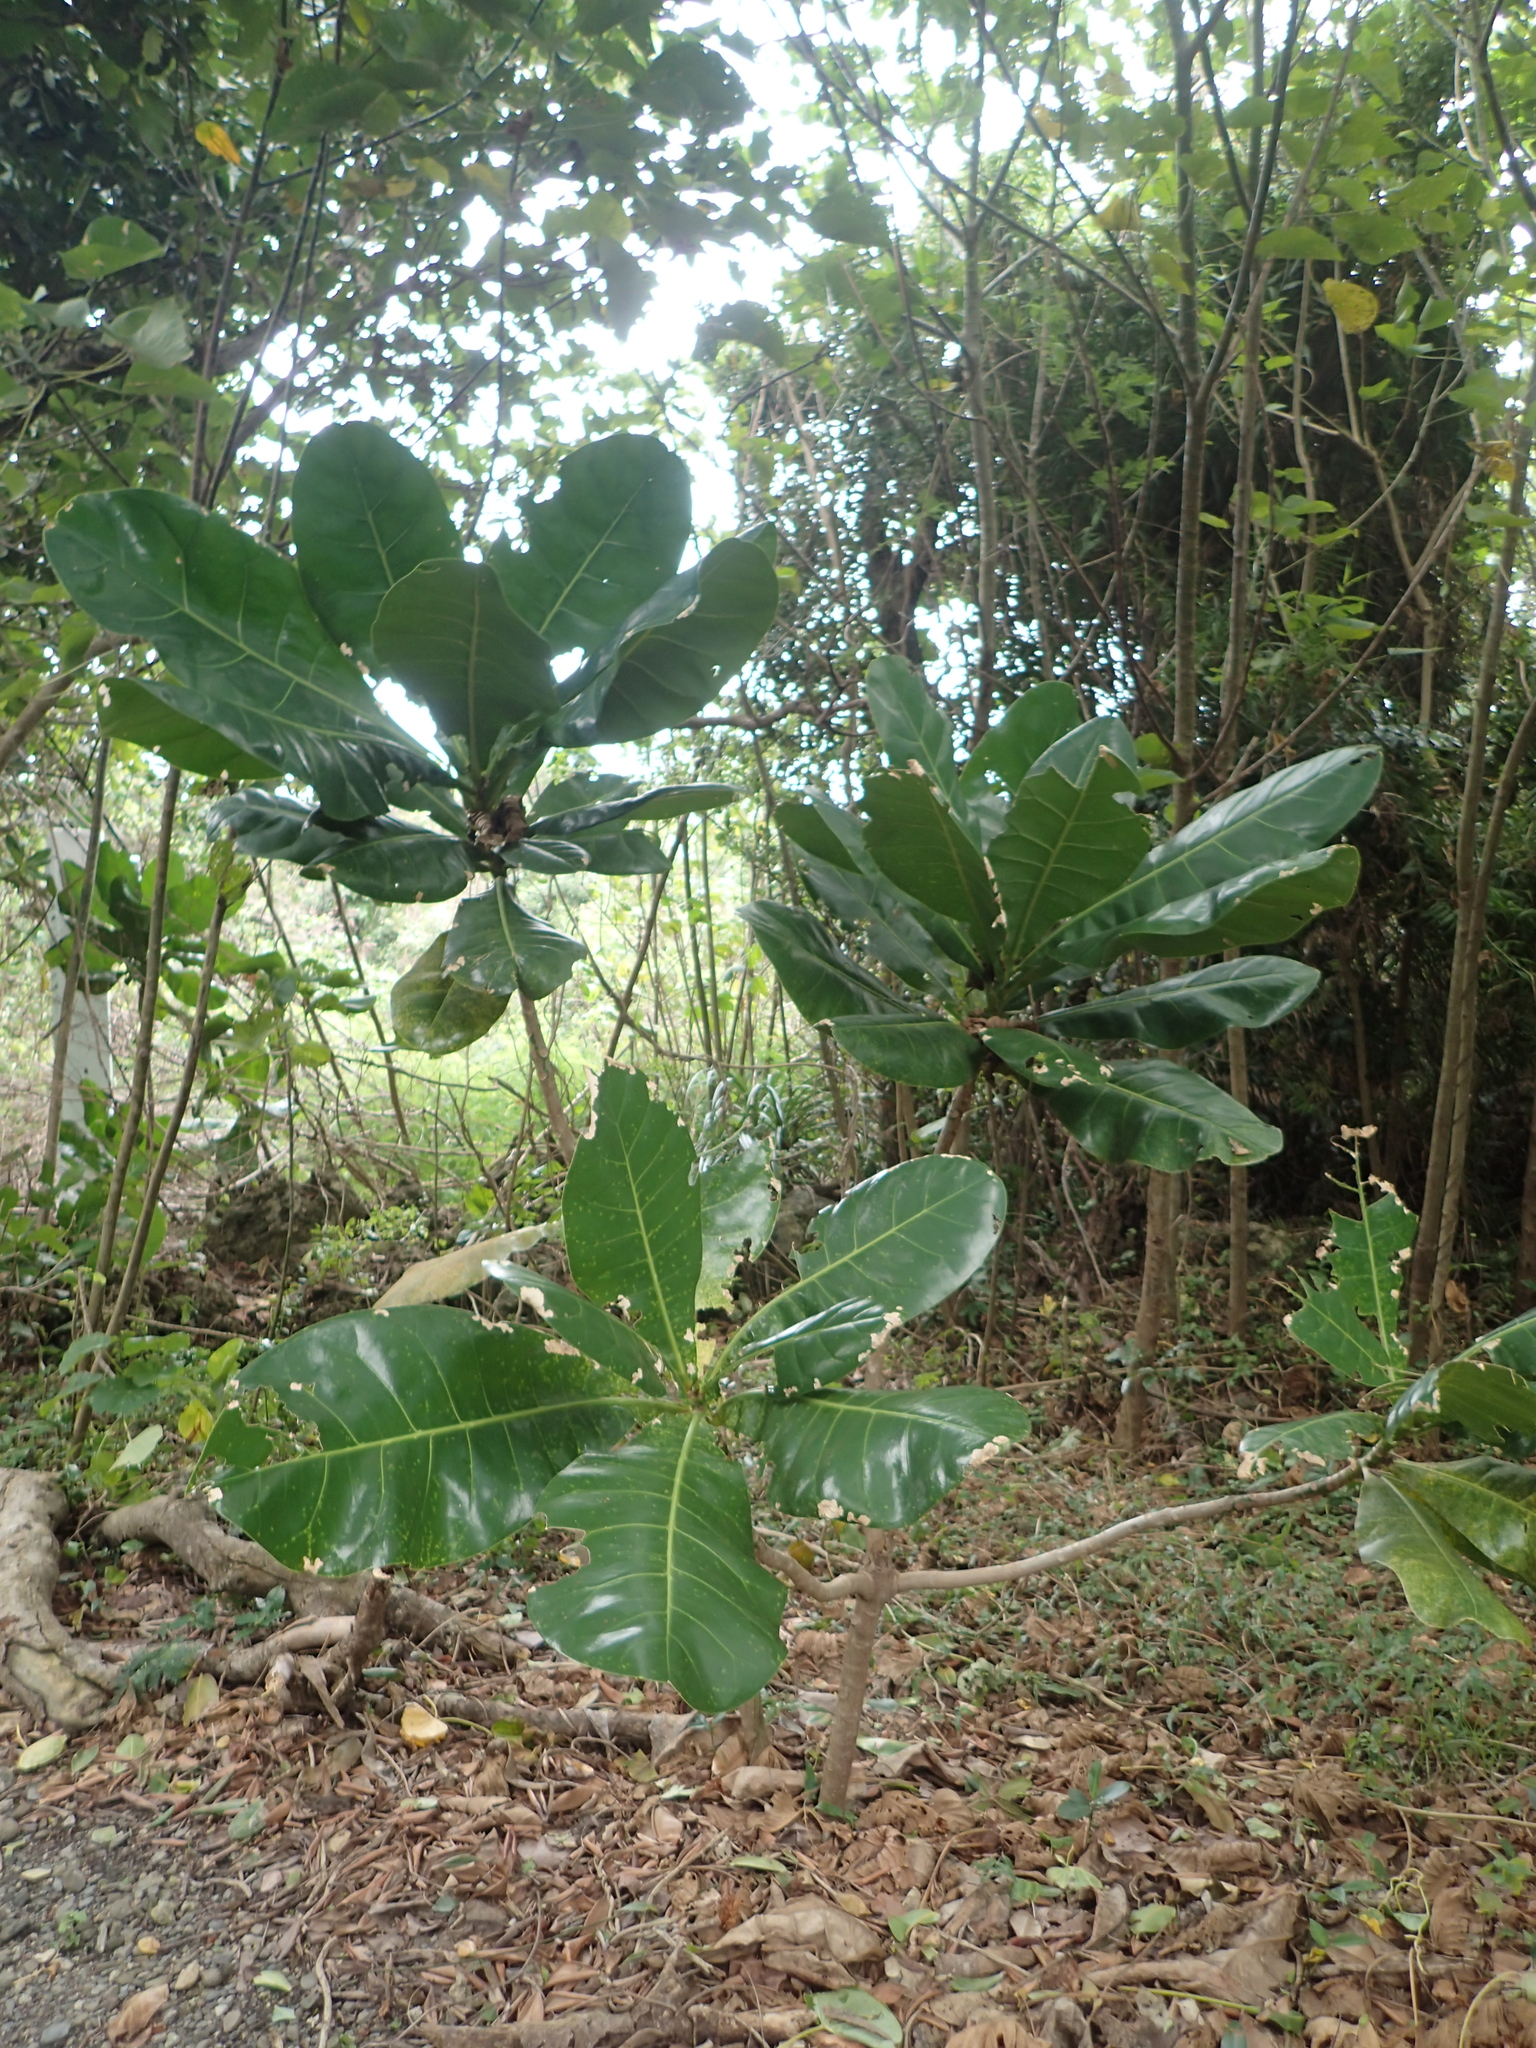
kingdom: Plantae
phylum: Tracheophyta
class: Magnoliopsida
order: Ericales
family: Lecythidaceae
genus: Barringtonia
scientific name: Barringtonia asiatica
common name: Mango-pine
